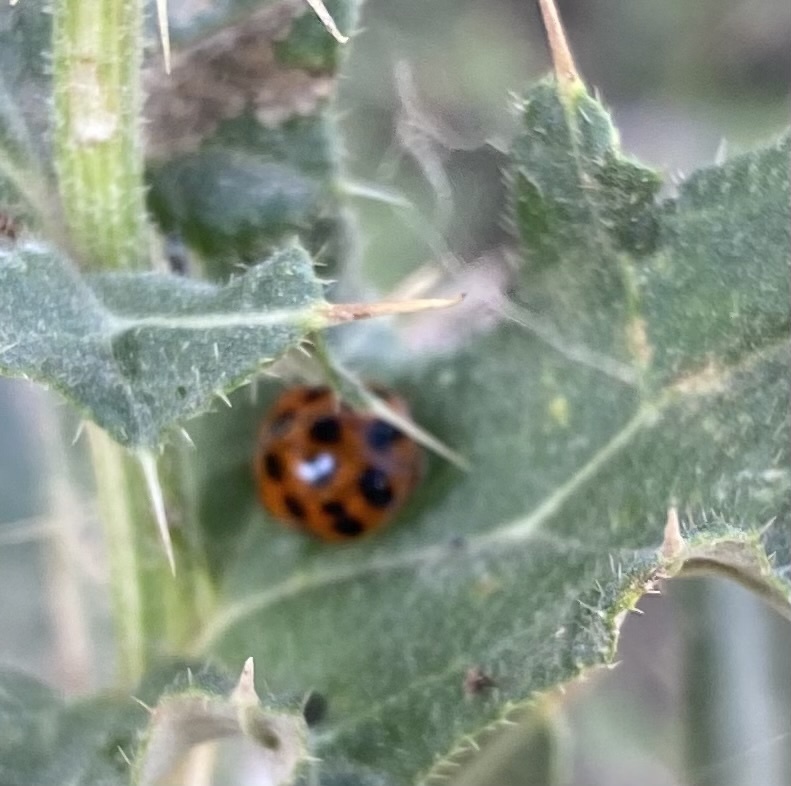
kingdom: Animalia
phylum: Arthropoda
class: Insecta
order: Coleoptera
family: Coccinellidae
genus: Harmonia
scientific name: Harmonia axyridis
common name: Harlequin ladybird
